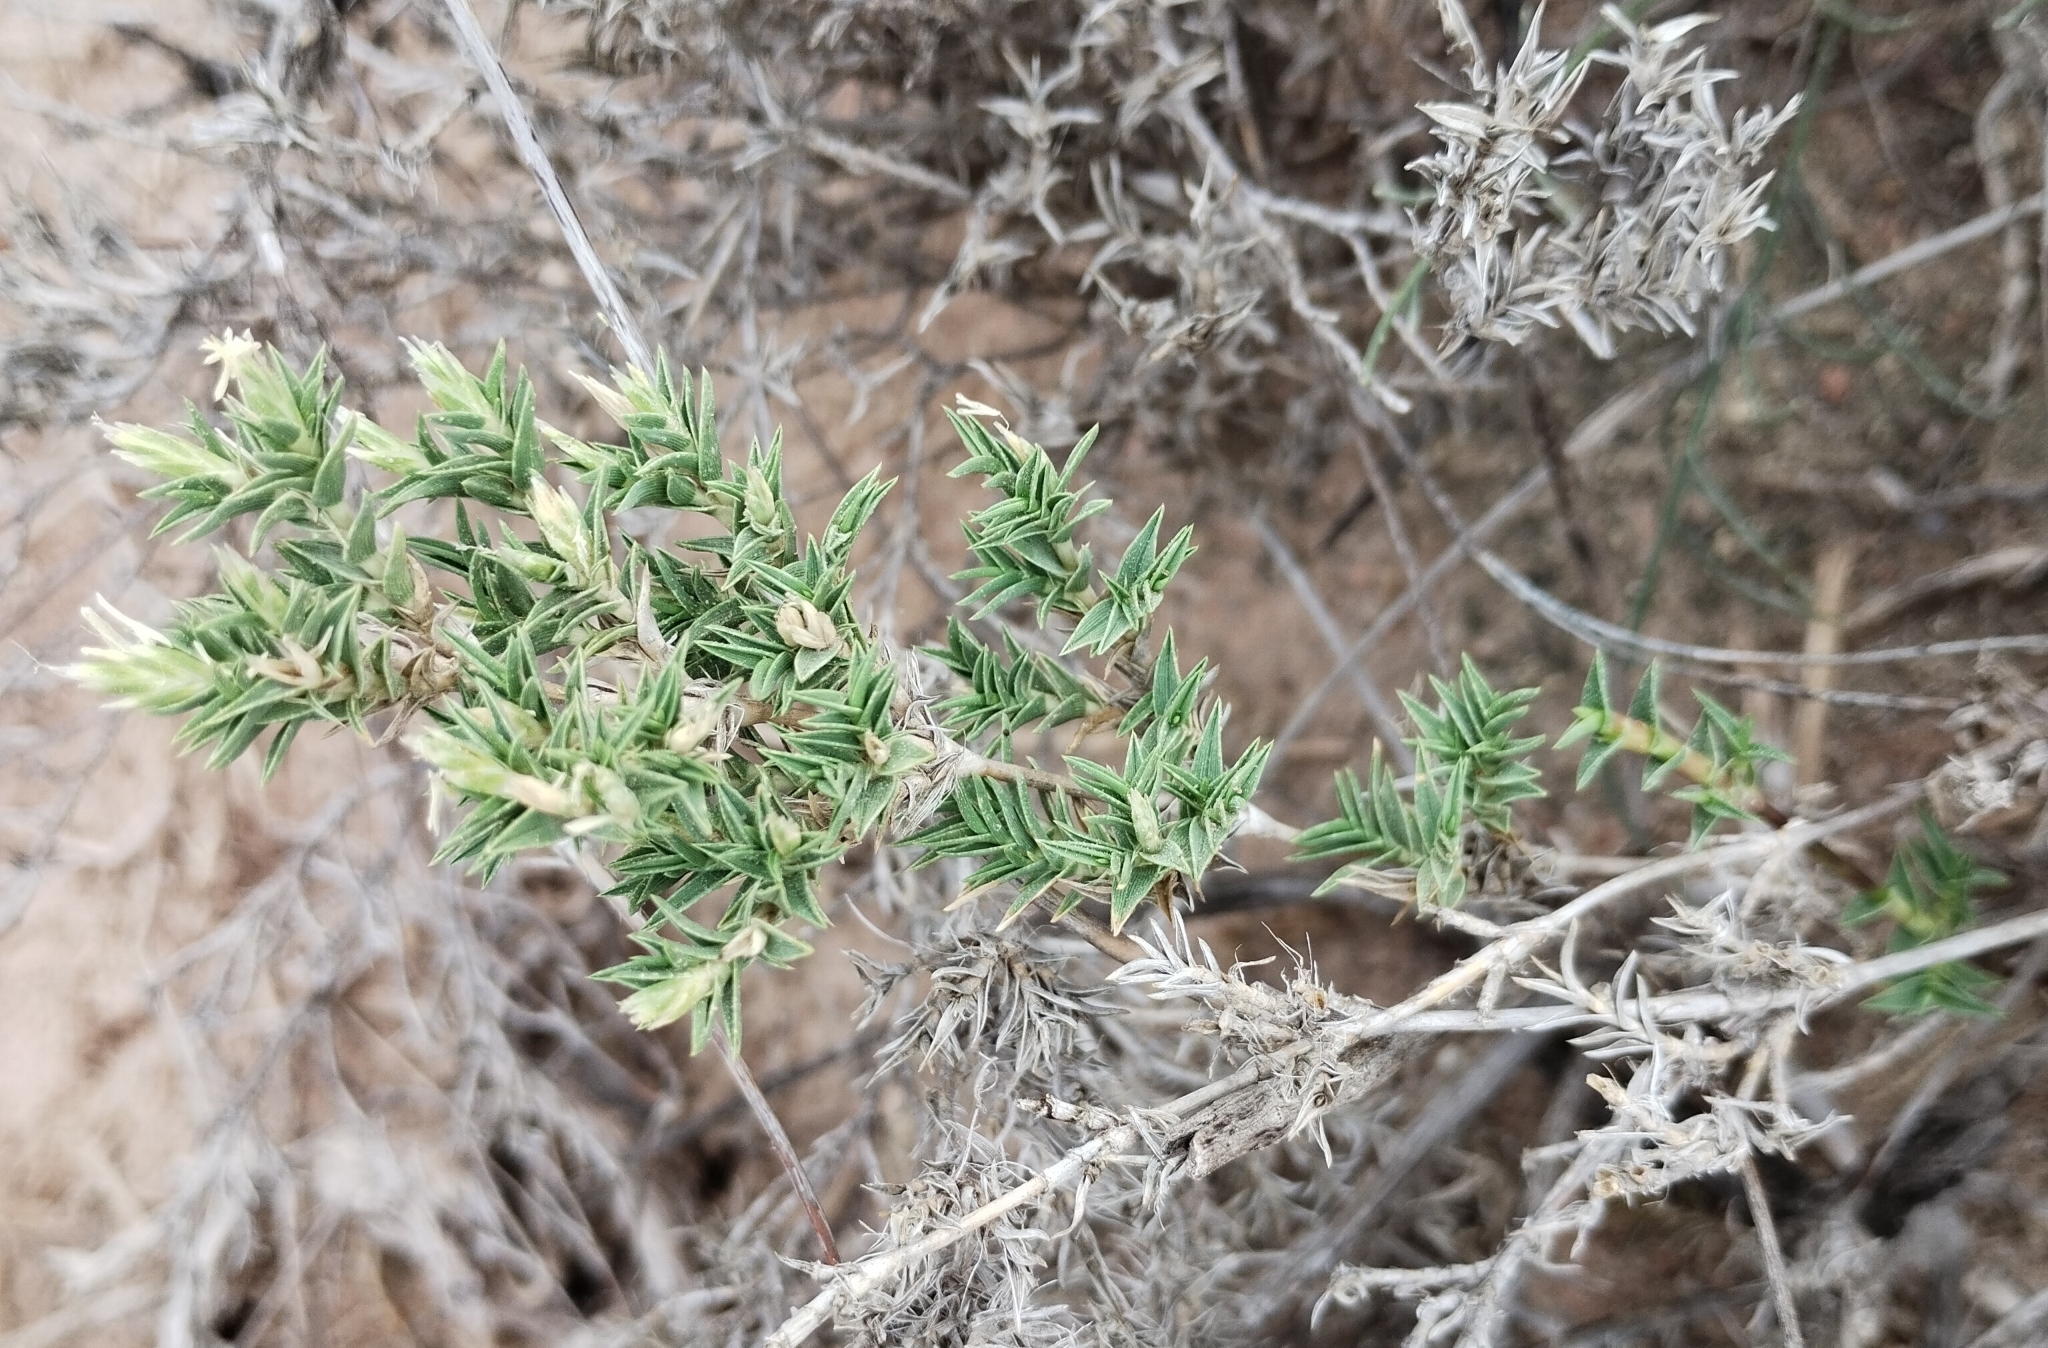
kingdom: Plantae
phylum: Tracheophyta
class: Liliopsida
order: Poales
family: Poaceae
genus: Distichlis
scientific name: Distichlis acerosa
